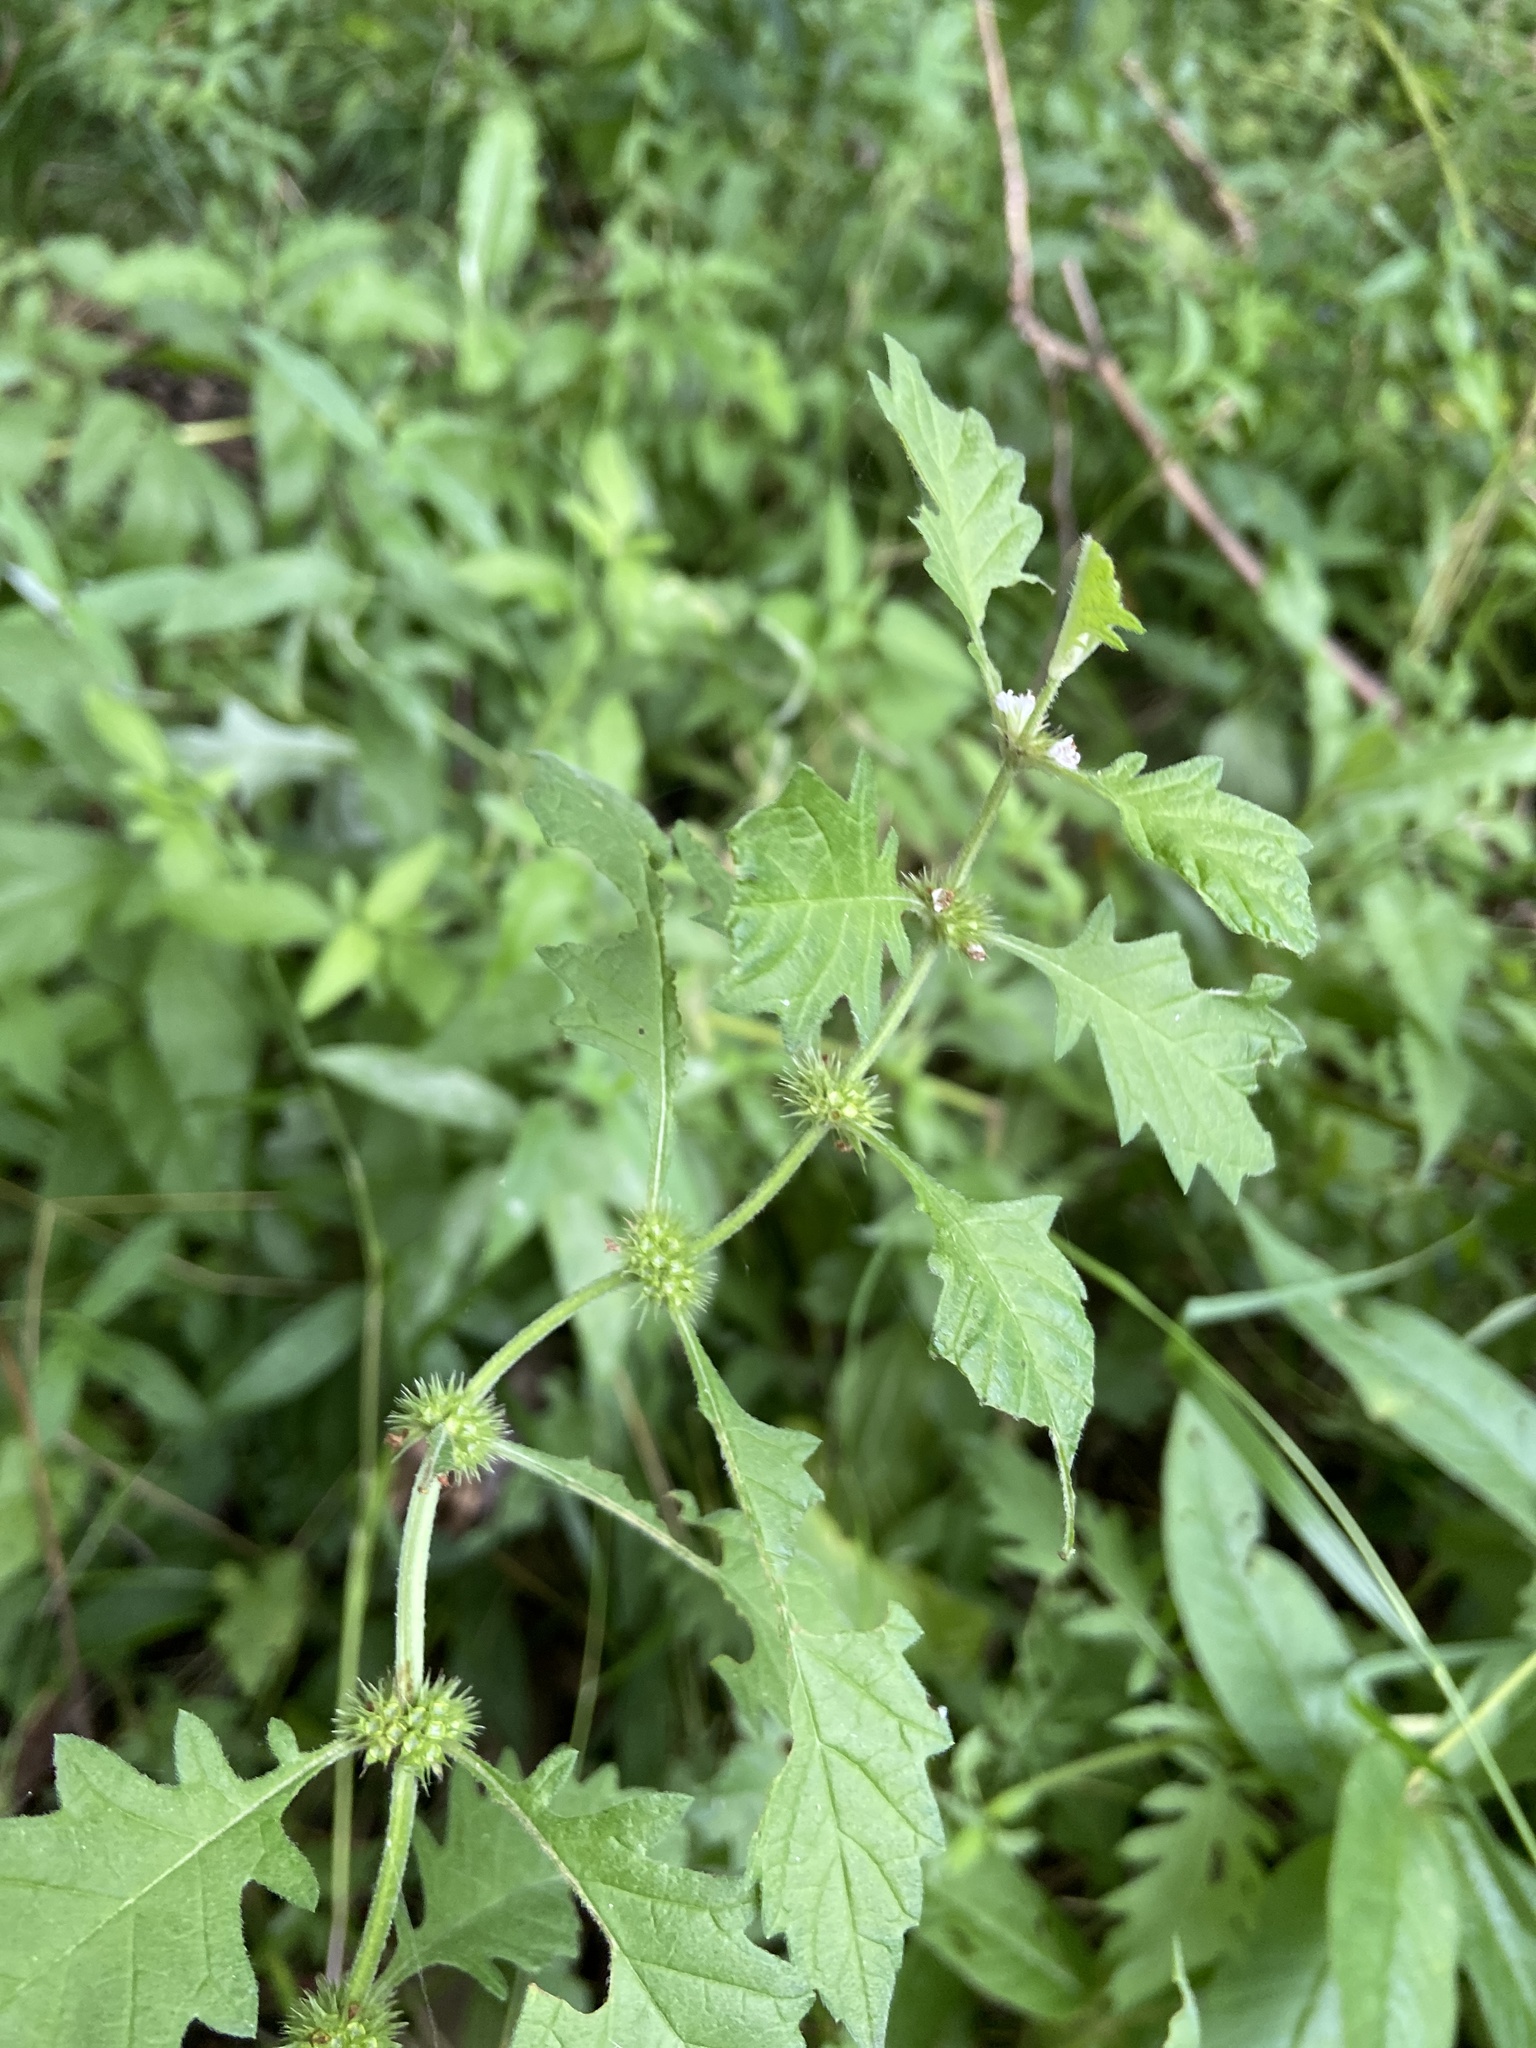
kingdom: Plantae
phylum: Tracheophyta
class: Magnoliopsida
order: Lamiales
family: Lamiaceae
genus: Lycopus
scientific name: Lycopus europaeus
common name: European bugleweed
